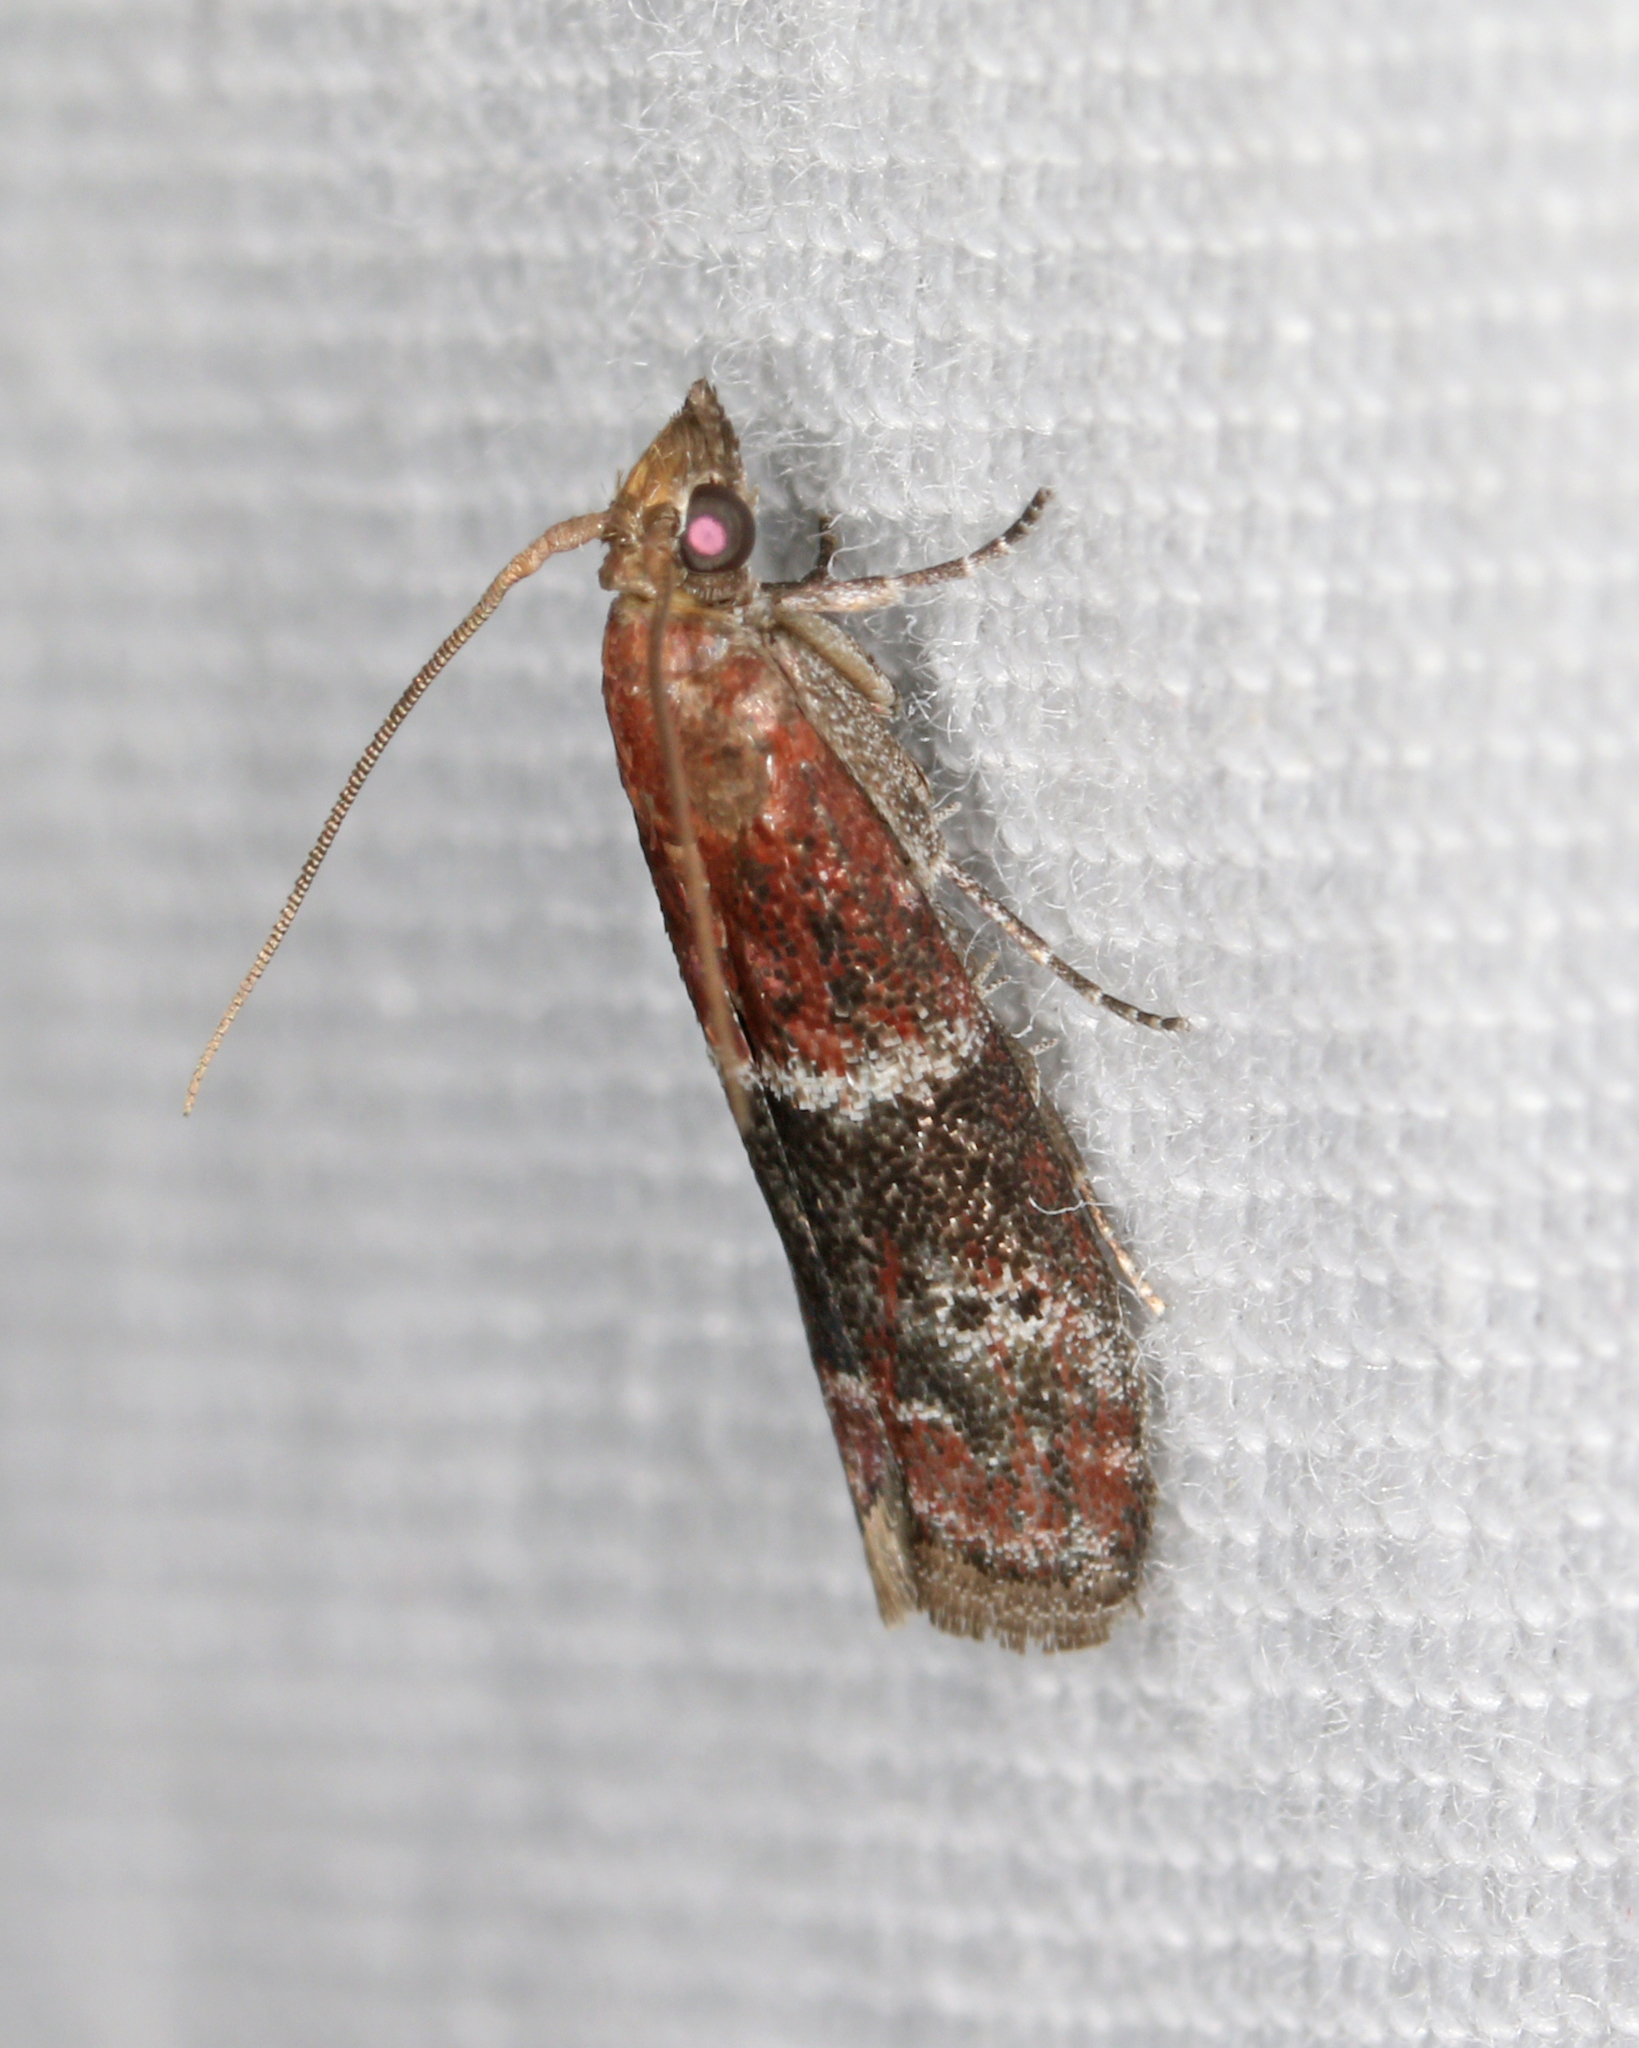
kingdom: Animalia
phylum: Arthropoda
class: Insecta
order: Lepidoptera
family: Pyralidae
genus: Moodna
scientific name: Moodna ostrinella
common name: Darker moodna moth
